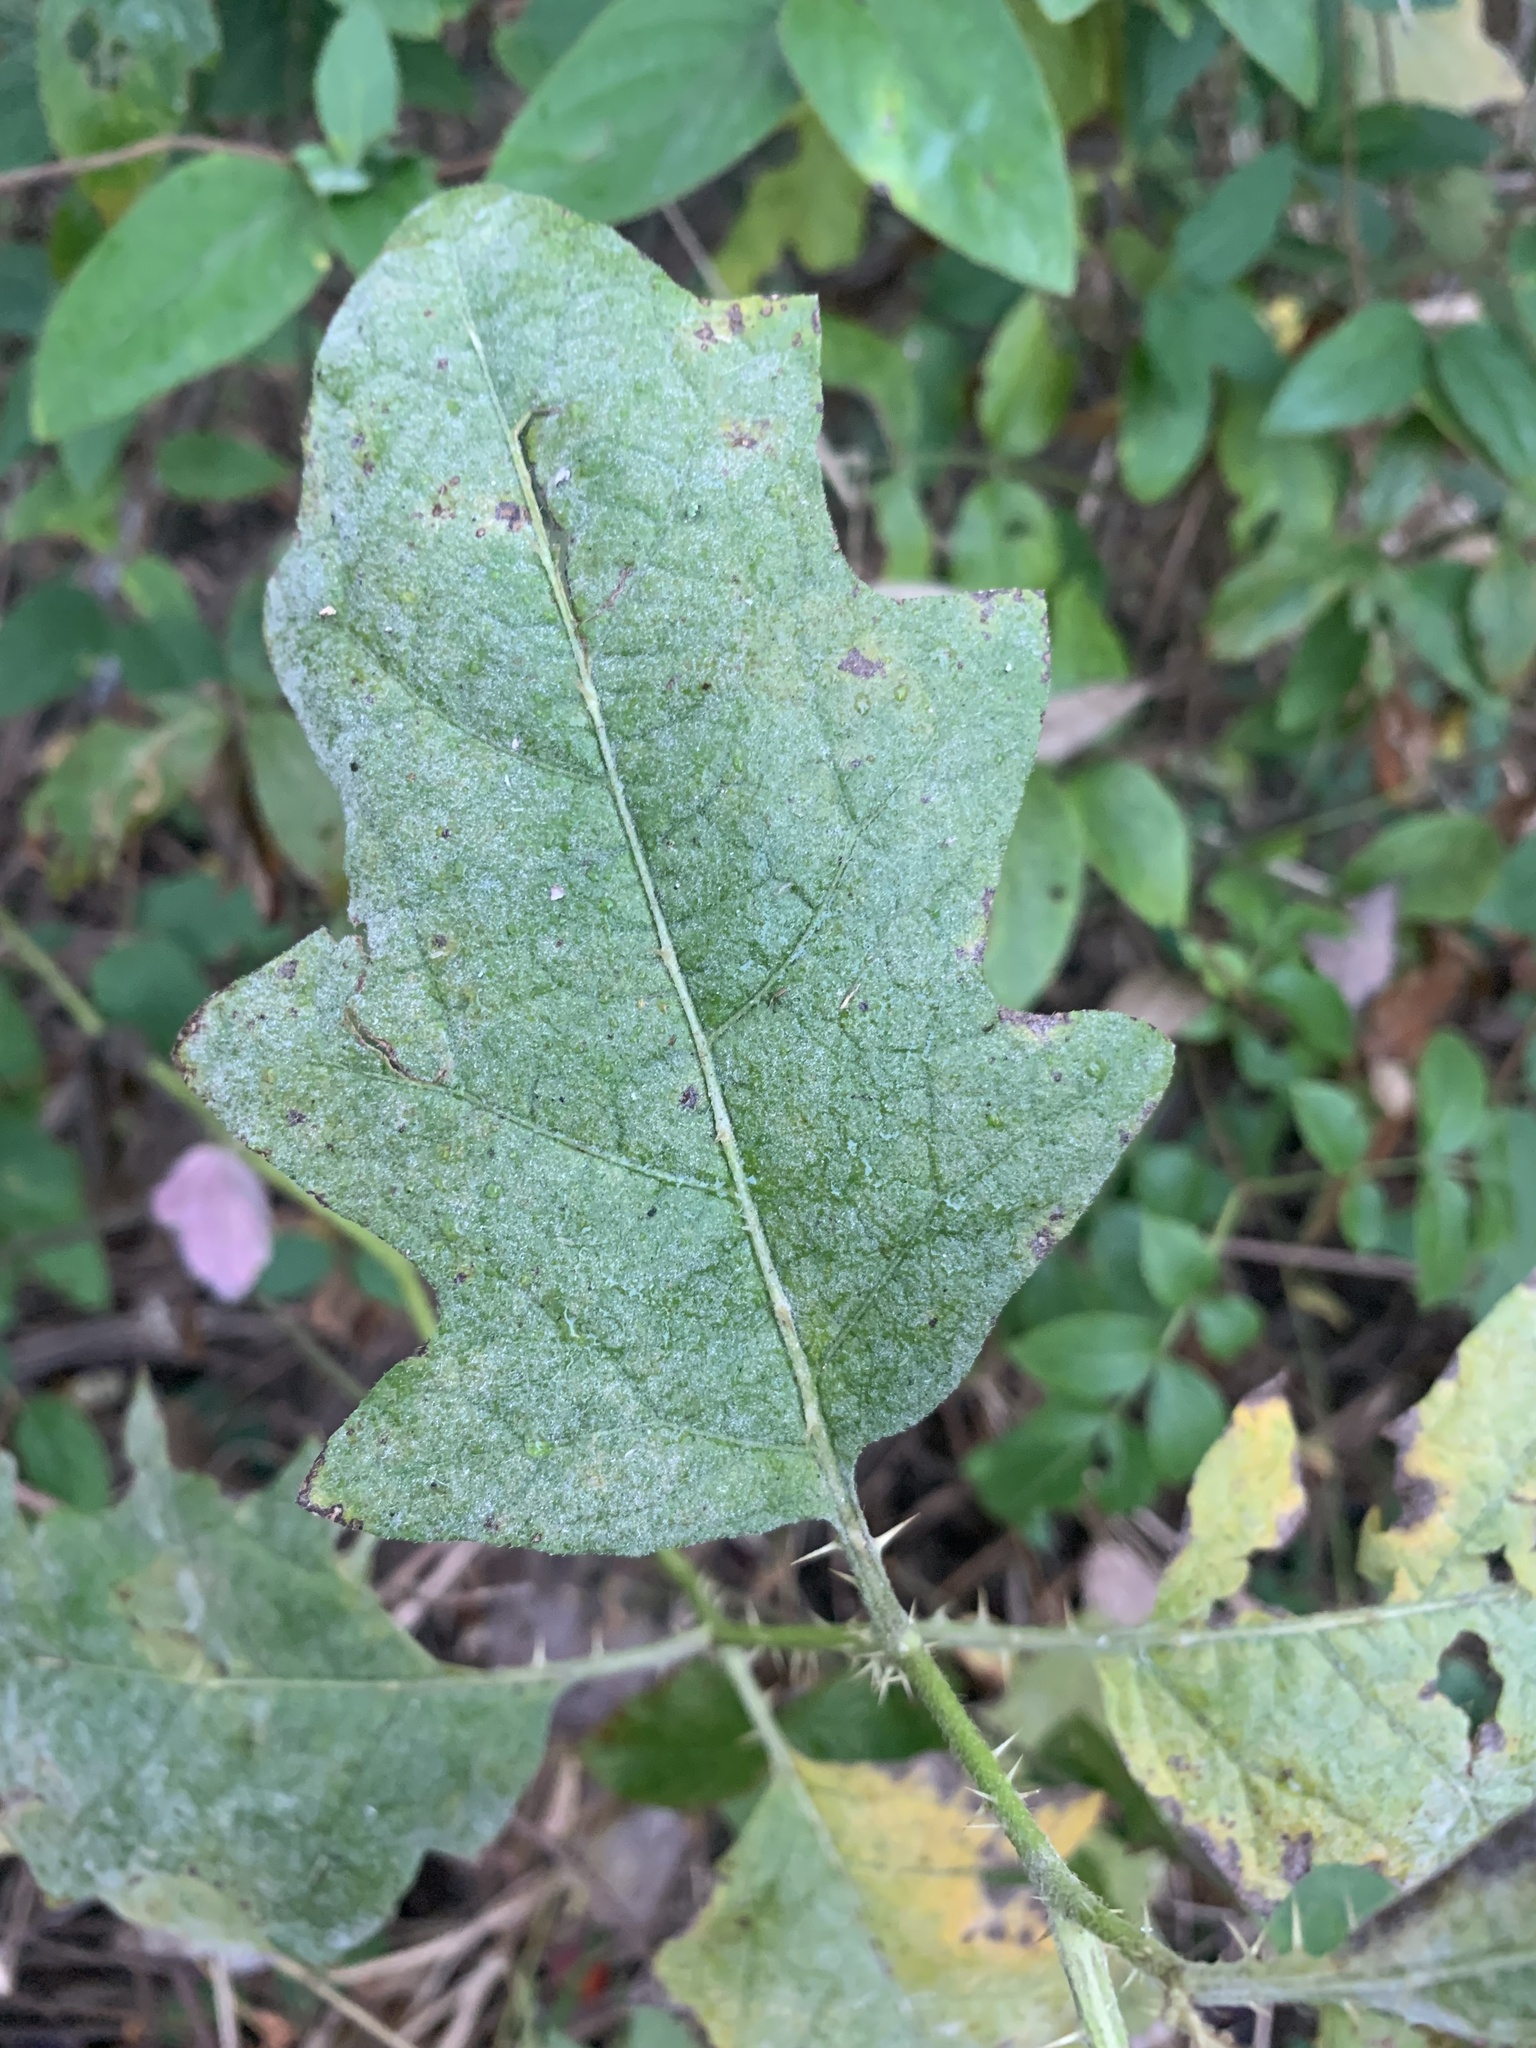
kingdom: Plantae
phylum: Tracheophyta
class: Magnoliopsida
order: Solanales
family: Solanaceae
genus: Solanum
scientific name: Solanum carolinense
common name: Horse-nettle
